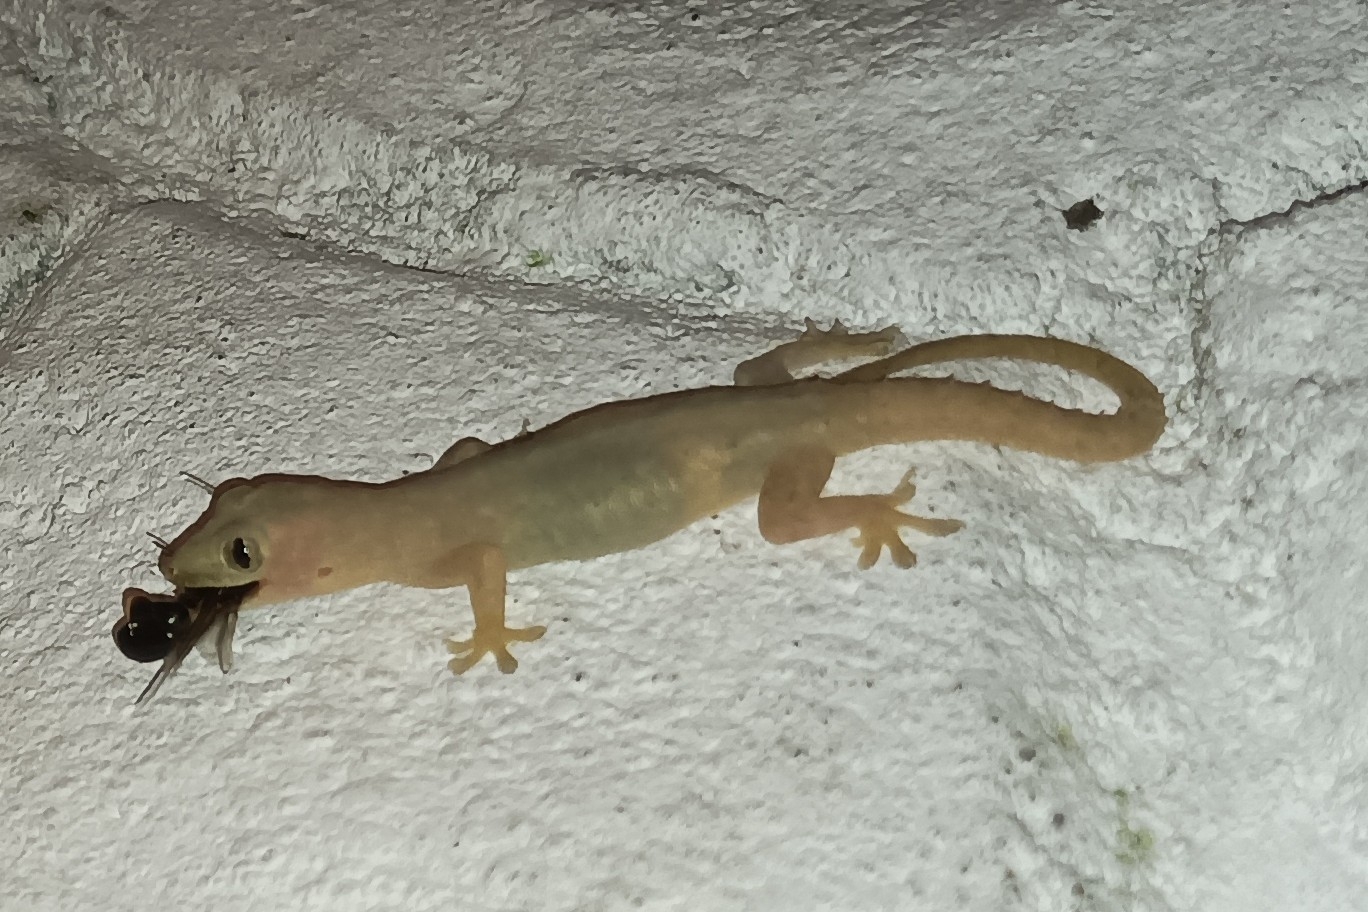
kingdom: Animalia
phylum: Chordata
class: Squamata
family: Gekkonidae
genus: Hemidactylus
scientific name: Hemidactylus frenatus
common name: Common house gecko
